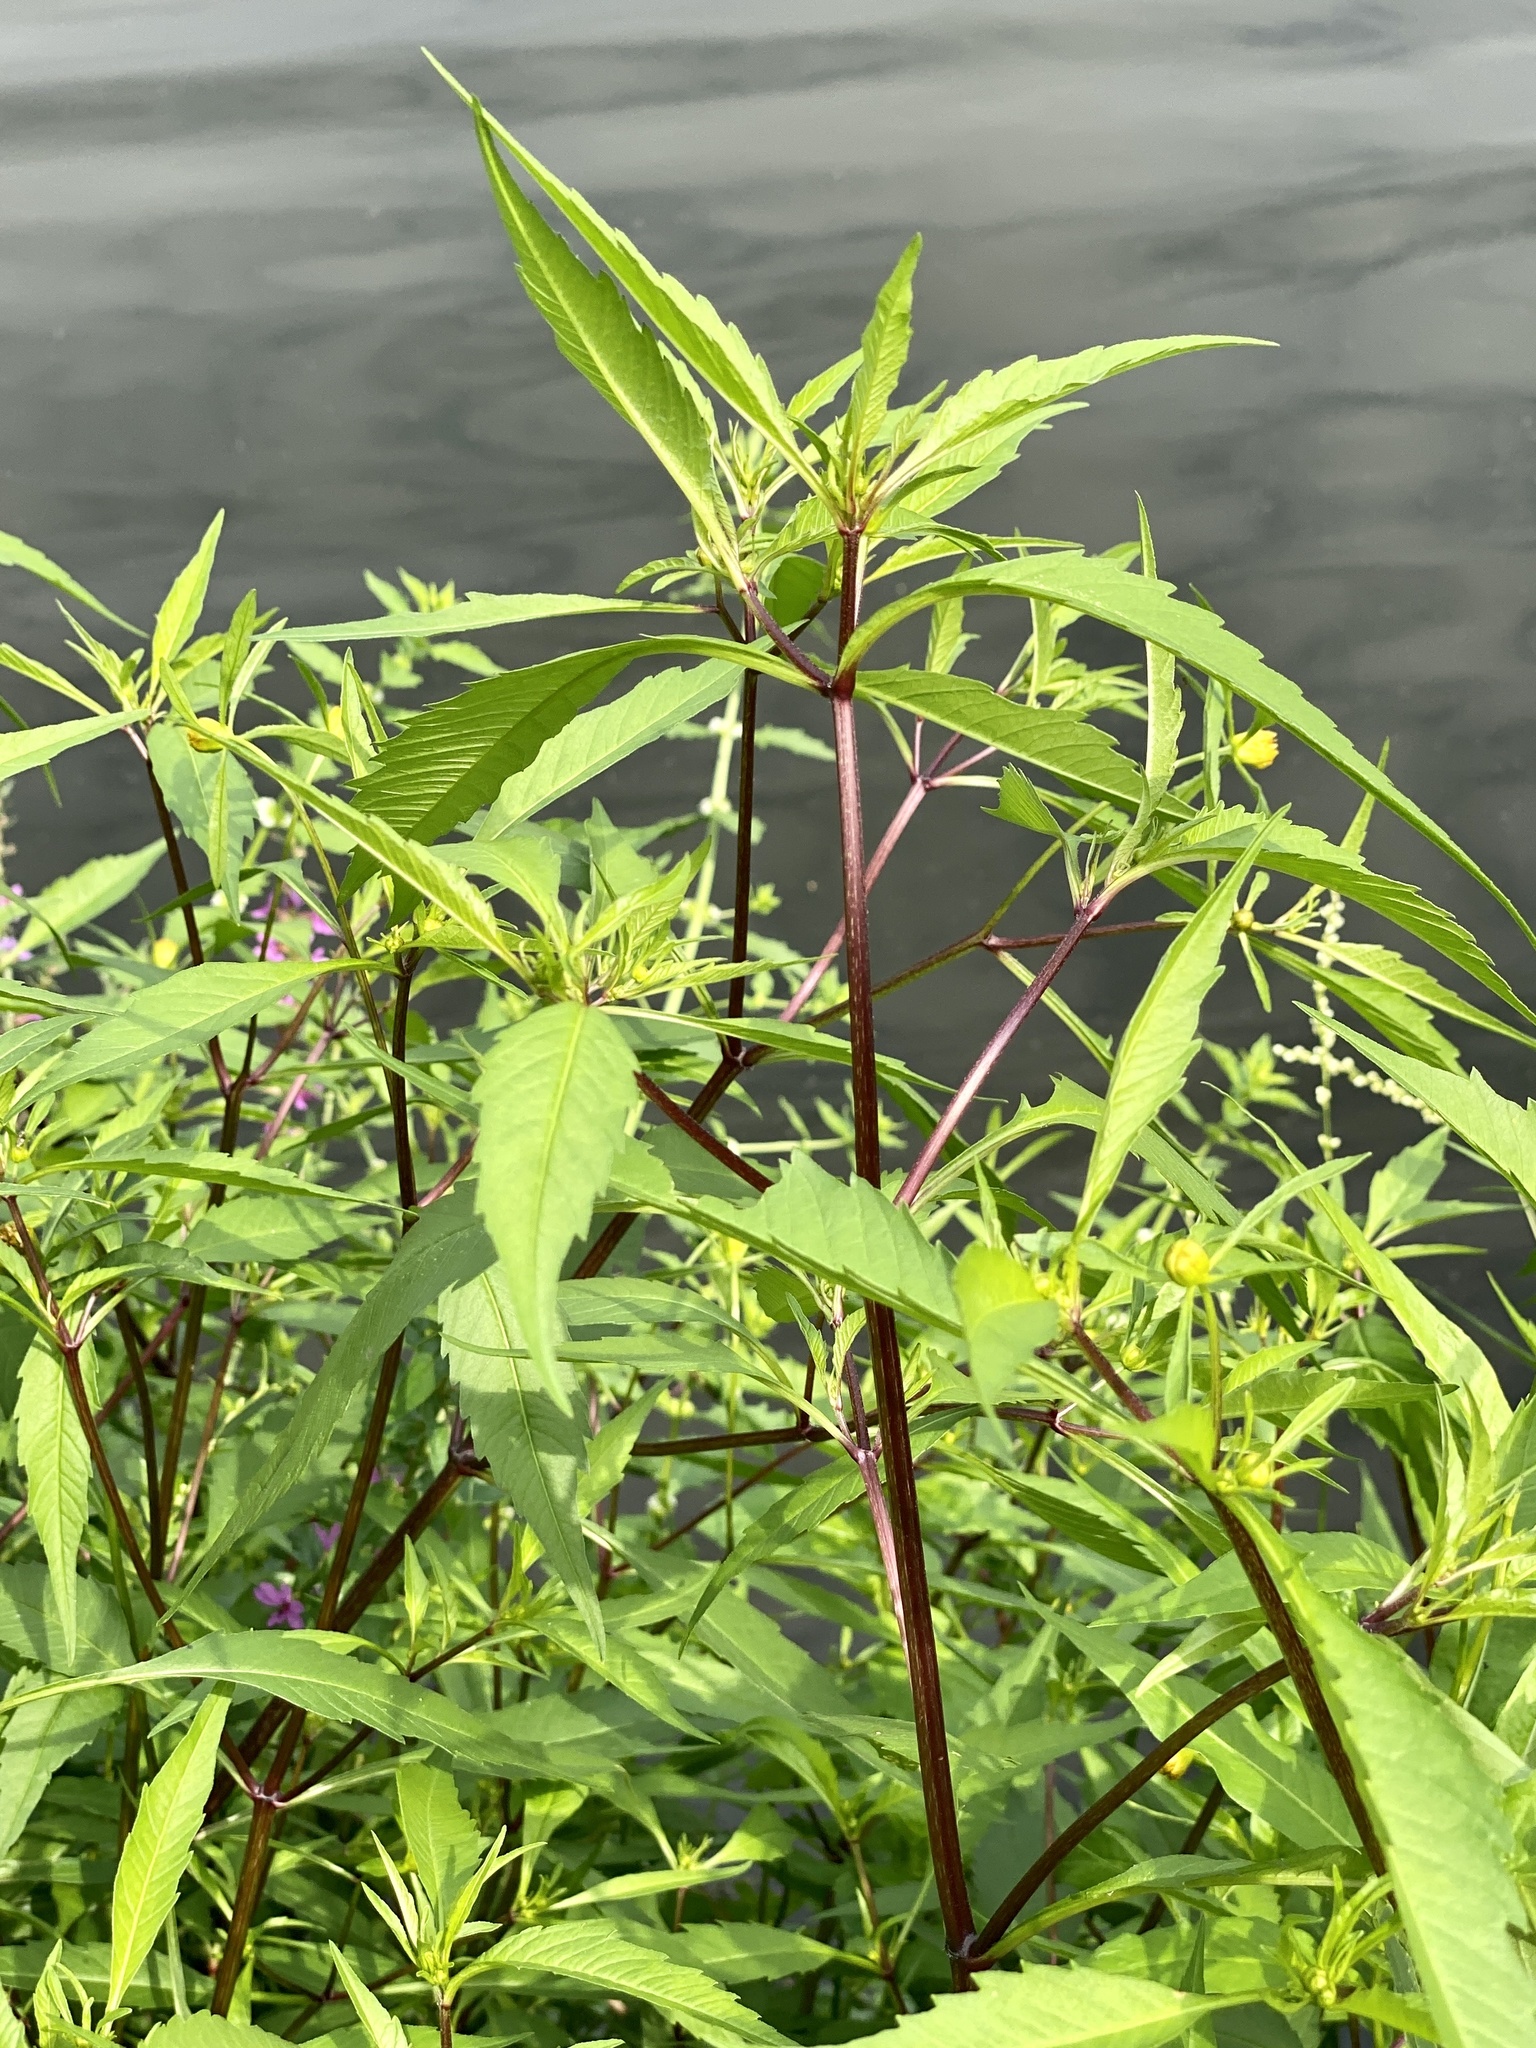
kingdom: Plantae
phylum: Tracheophyta
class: Magnoliopsida
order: Asterales
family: Asteraceae
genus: Bidens
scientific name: Bidens connata
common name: London bur-marigold
